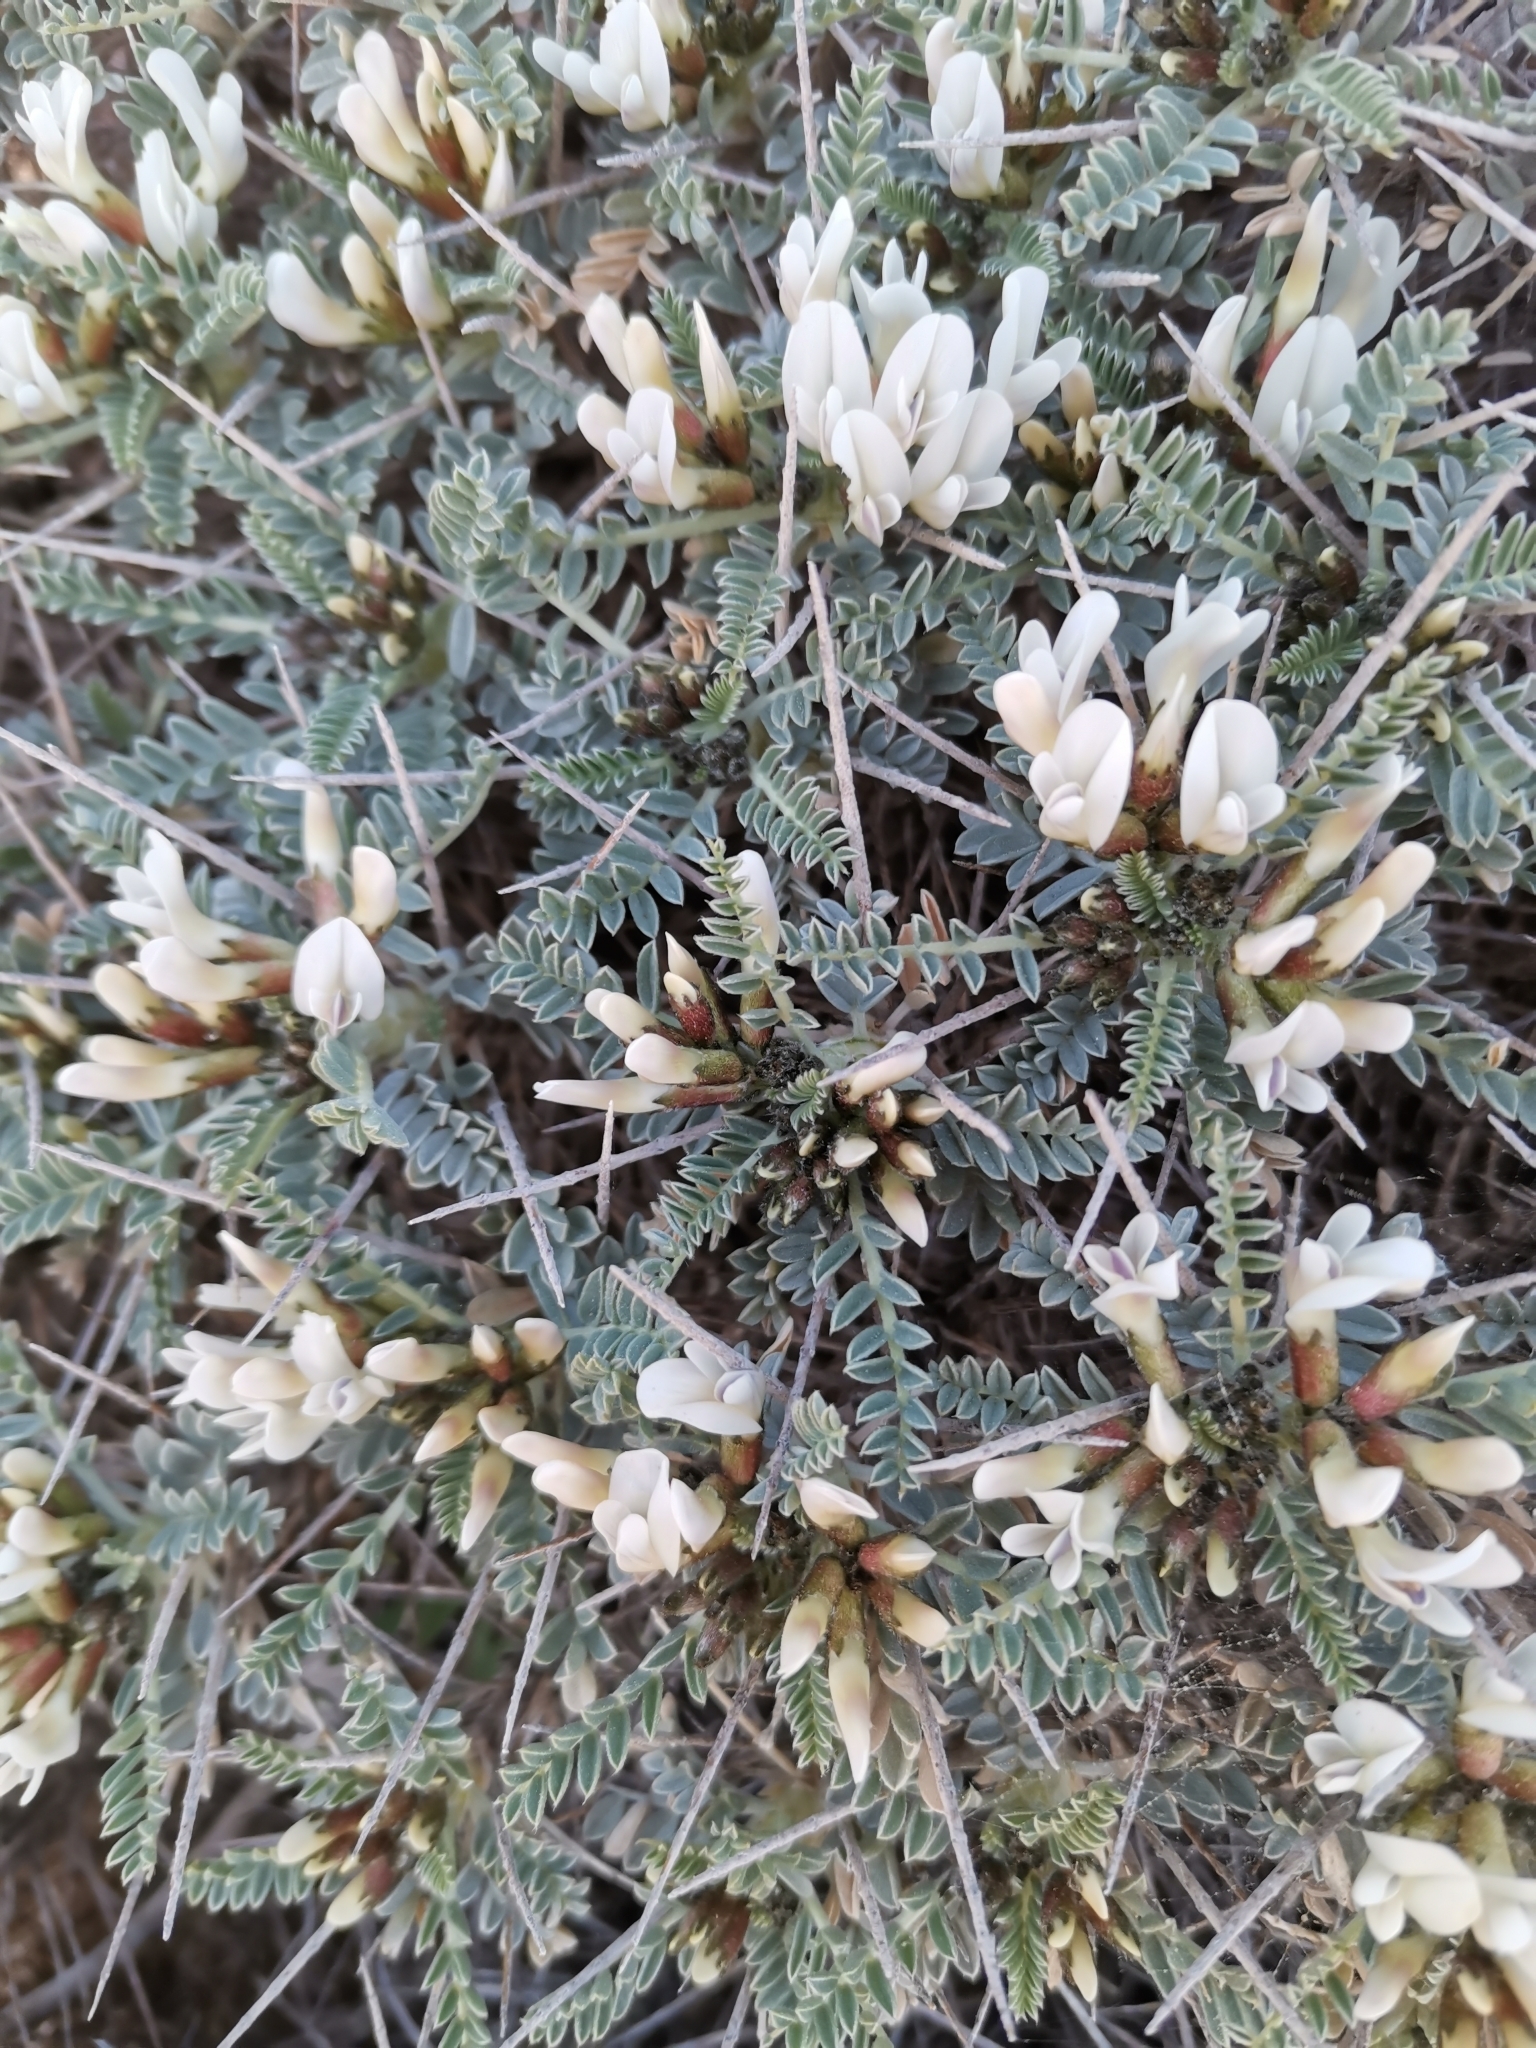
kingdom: Plantae
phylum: Tracheophyta
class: Magnoliopsida
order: Fabales
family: Fabaceae
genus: Astragalus
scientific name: Astragalus tragacantha
